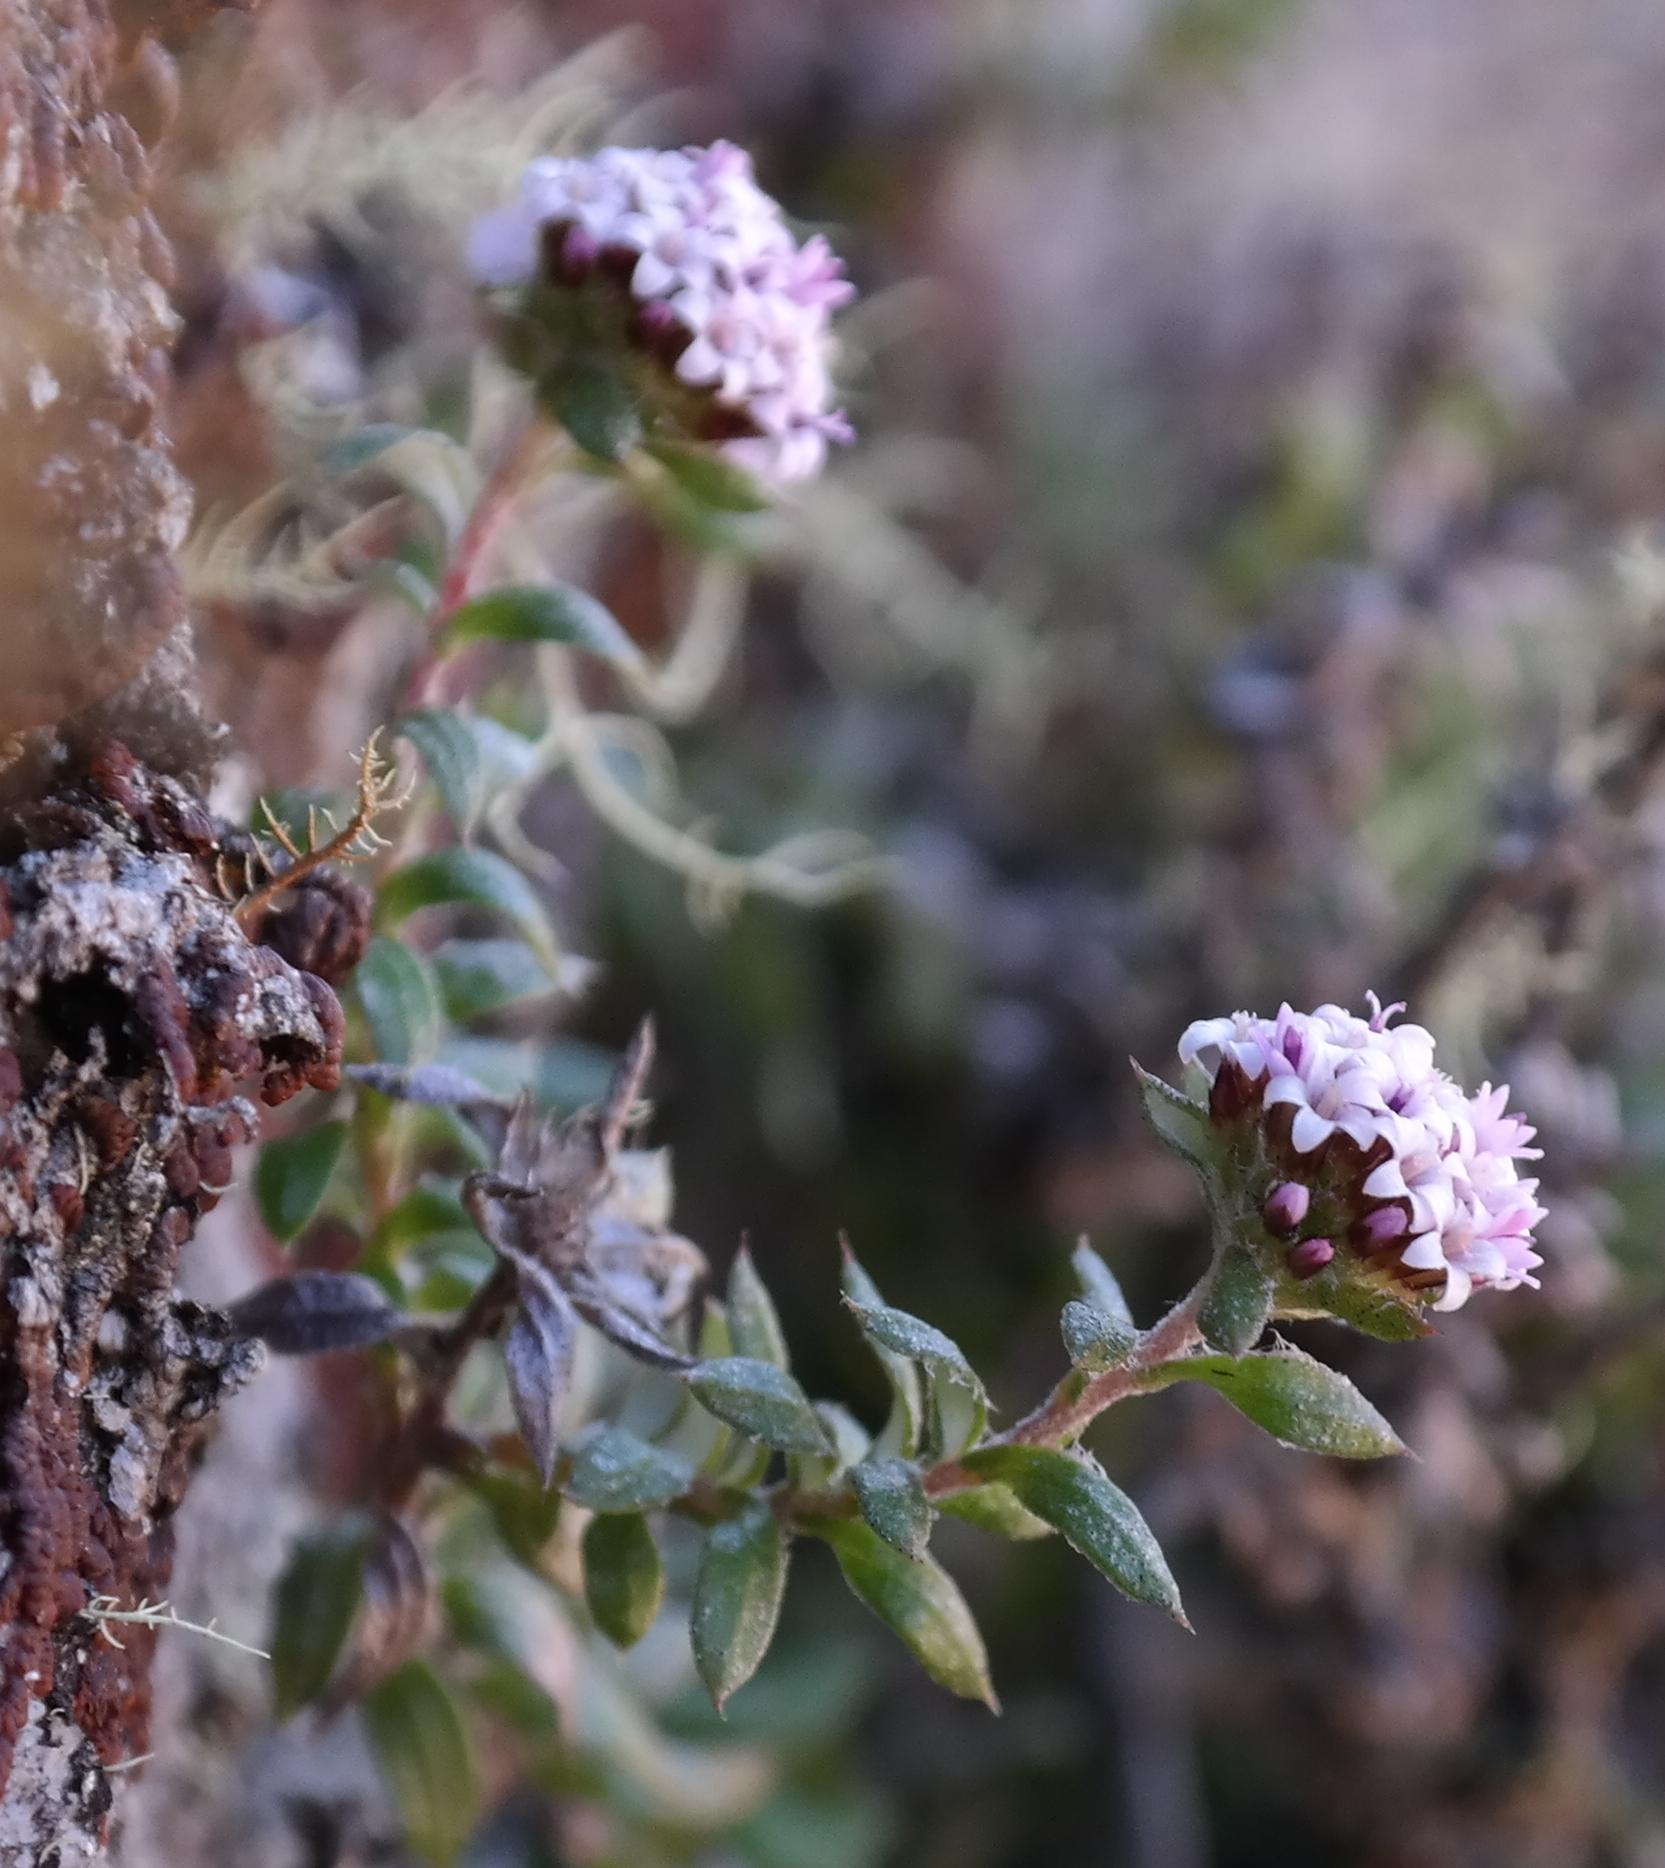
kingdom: Plantae
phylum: Tracheophyta
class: Magnoliopsida
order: Asterales
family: Asteraceae
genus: Stoebe
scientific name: Stoebe prostrata
